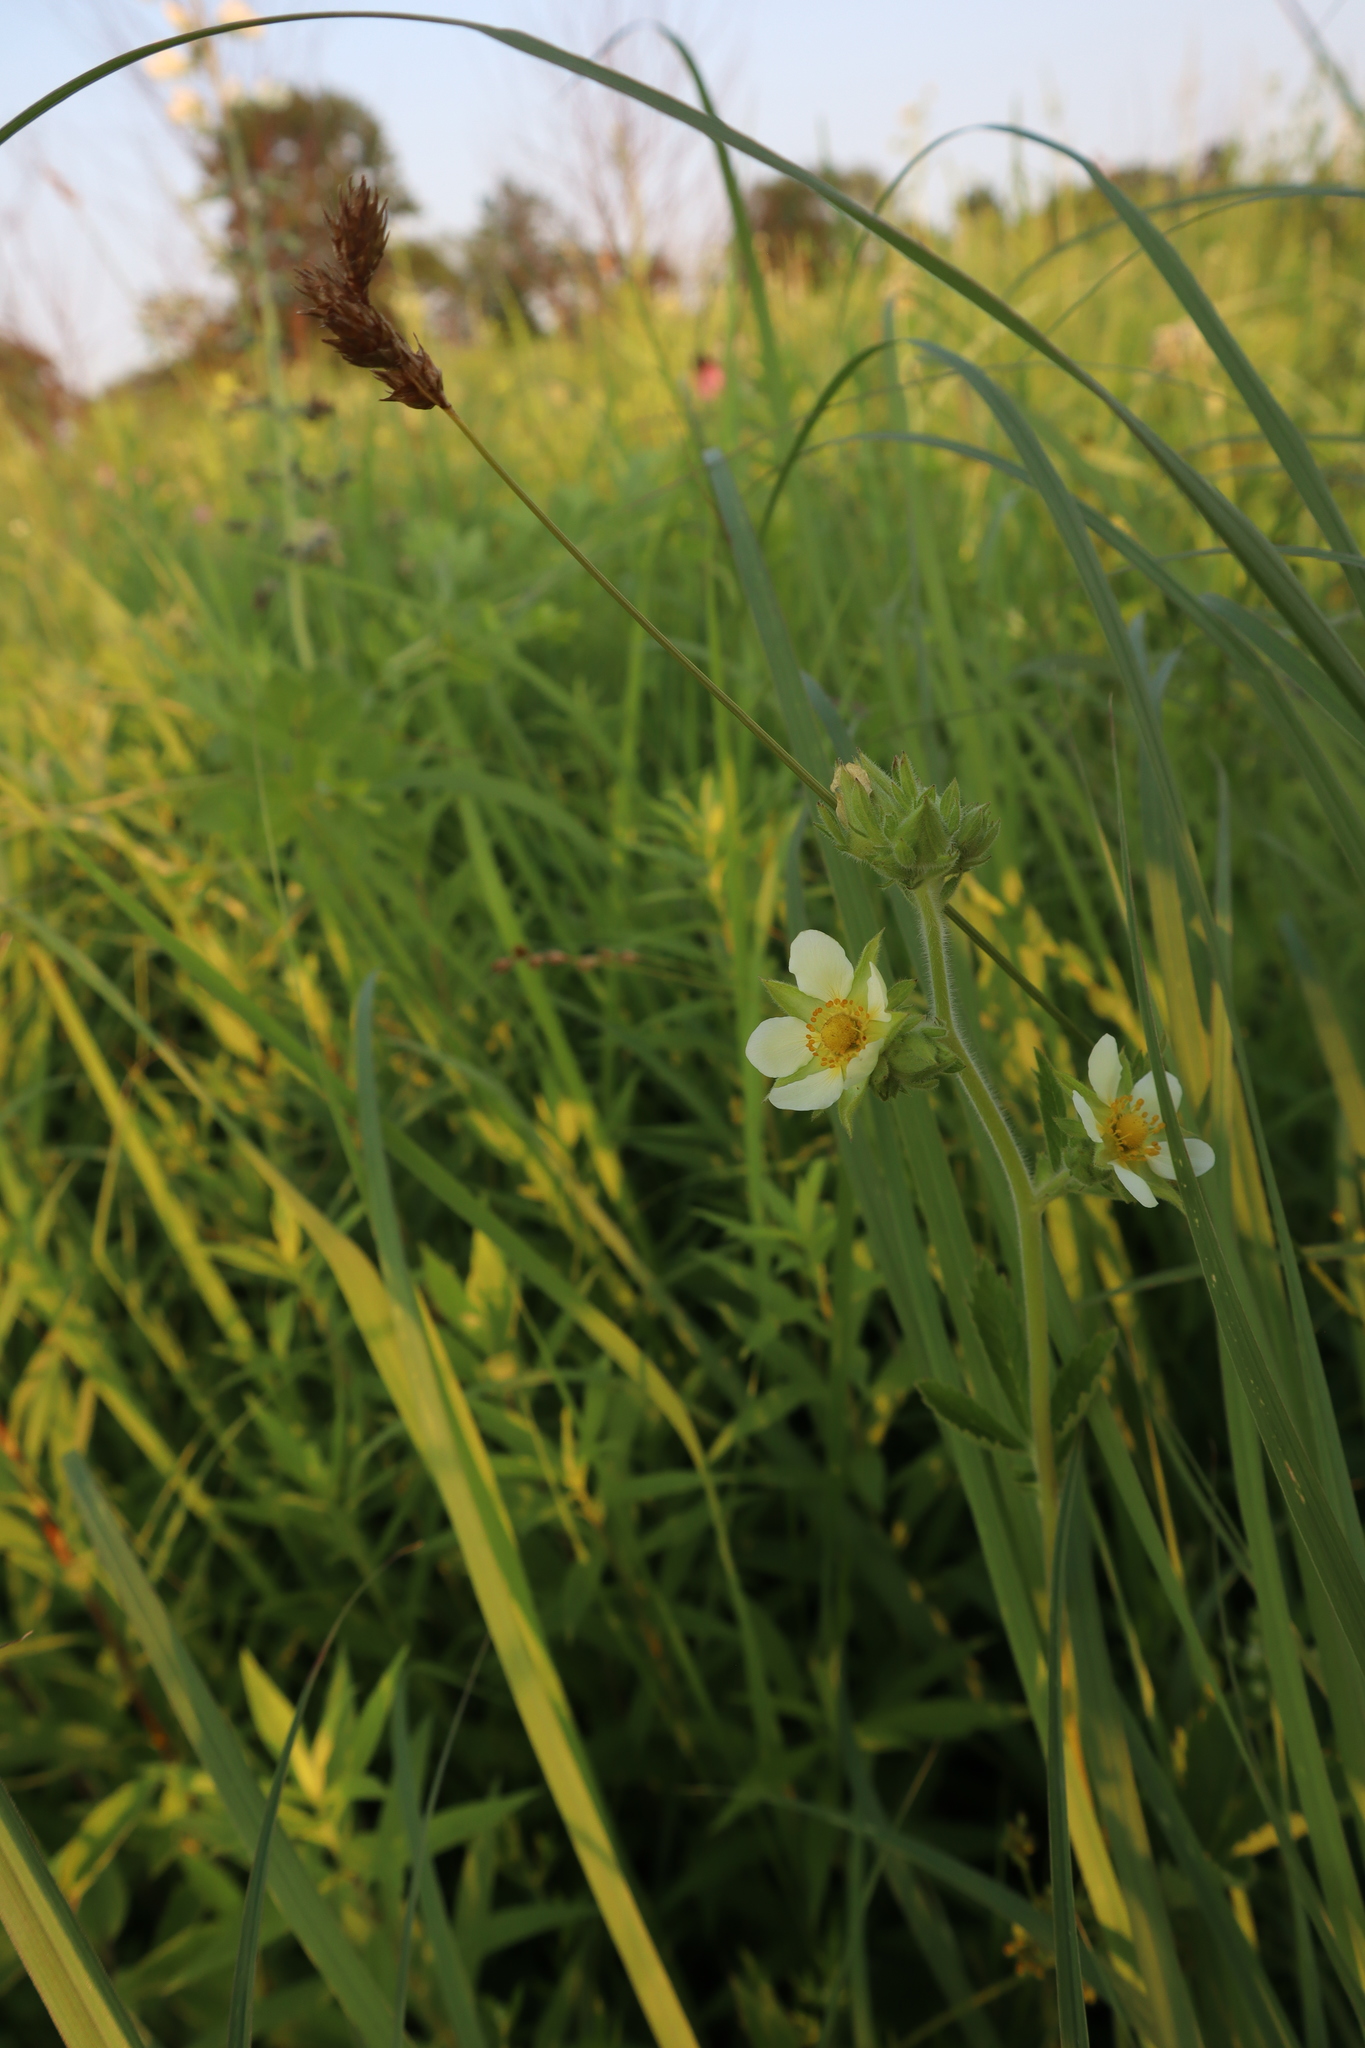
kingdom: Plantae
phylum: Tracheophyta
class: Magnoliopsida
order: Rosales
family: Rosaceae
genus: Drymocallis
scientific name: Drymocallis arguta
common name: Tall cinquefoil
